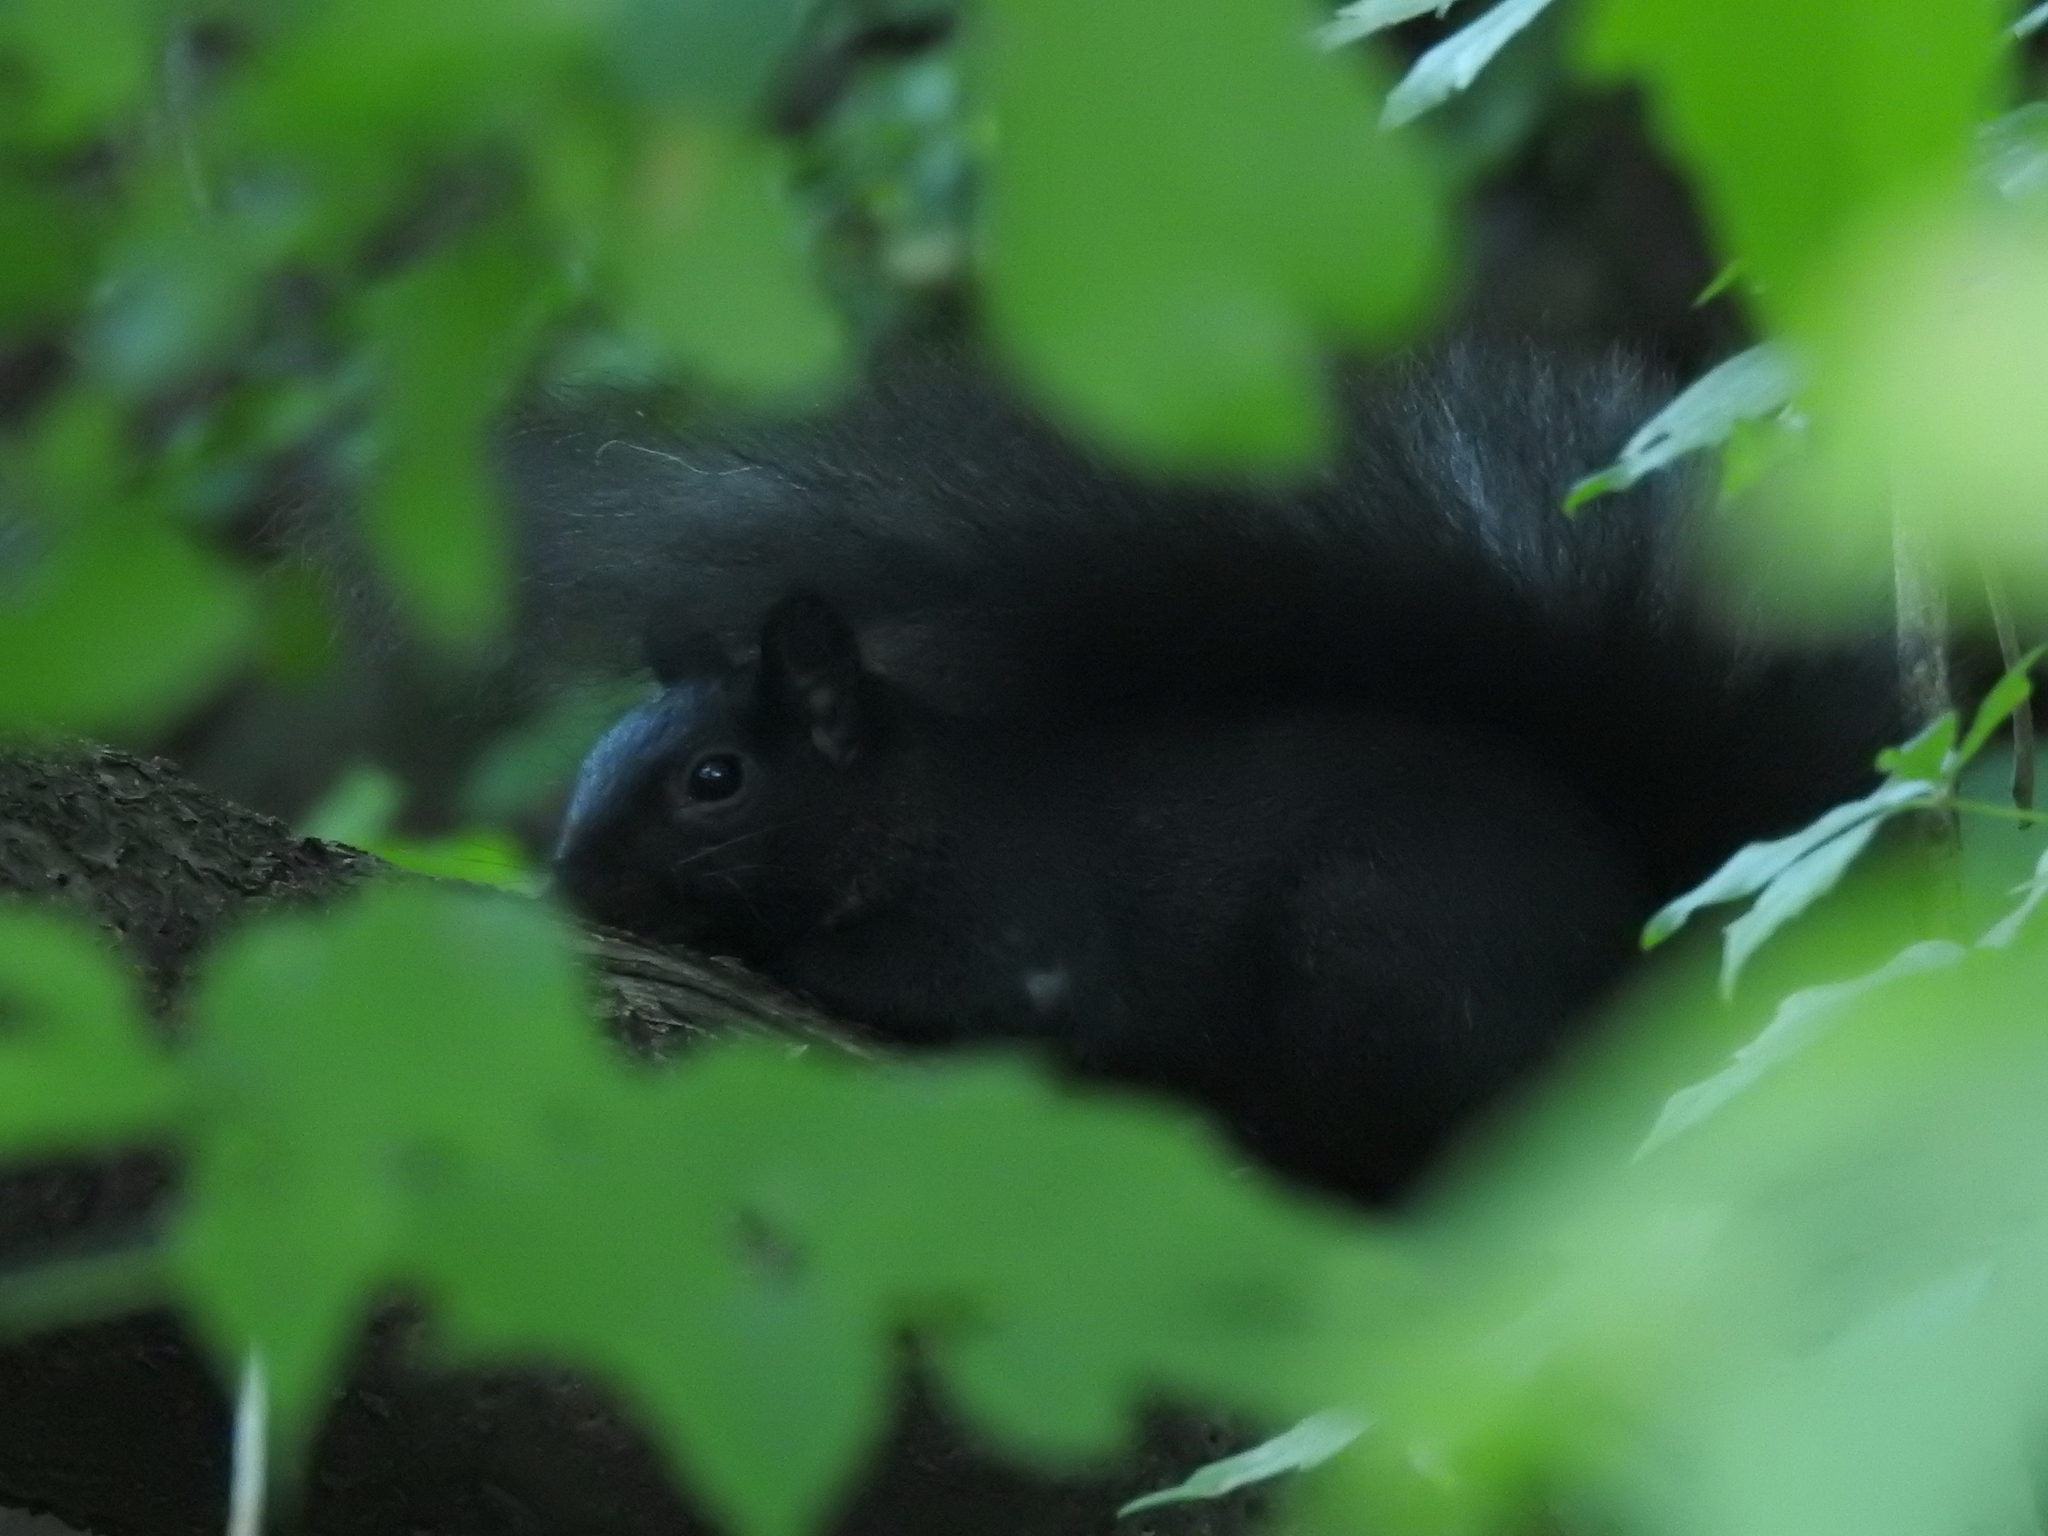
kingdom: Animalia
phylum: Chordata
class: Mammalia
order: Rodentia
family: Sciuridae
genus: Sciurus
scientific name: Sciurus carolinensis
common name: Eastern gray squirrel
